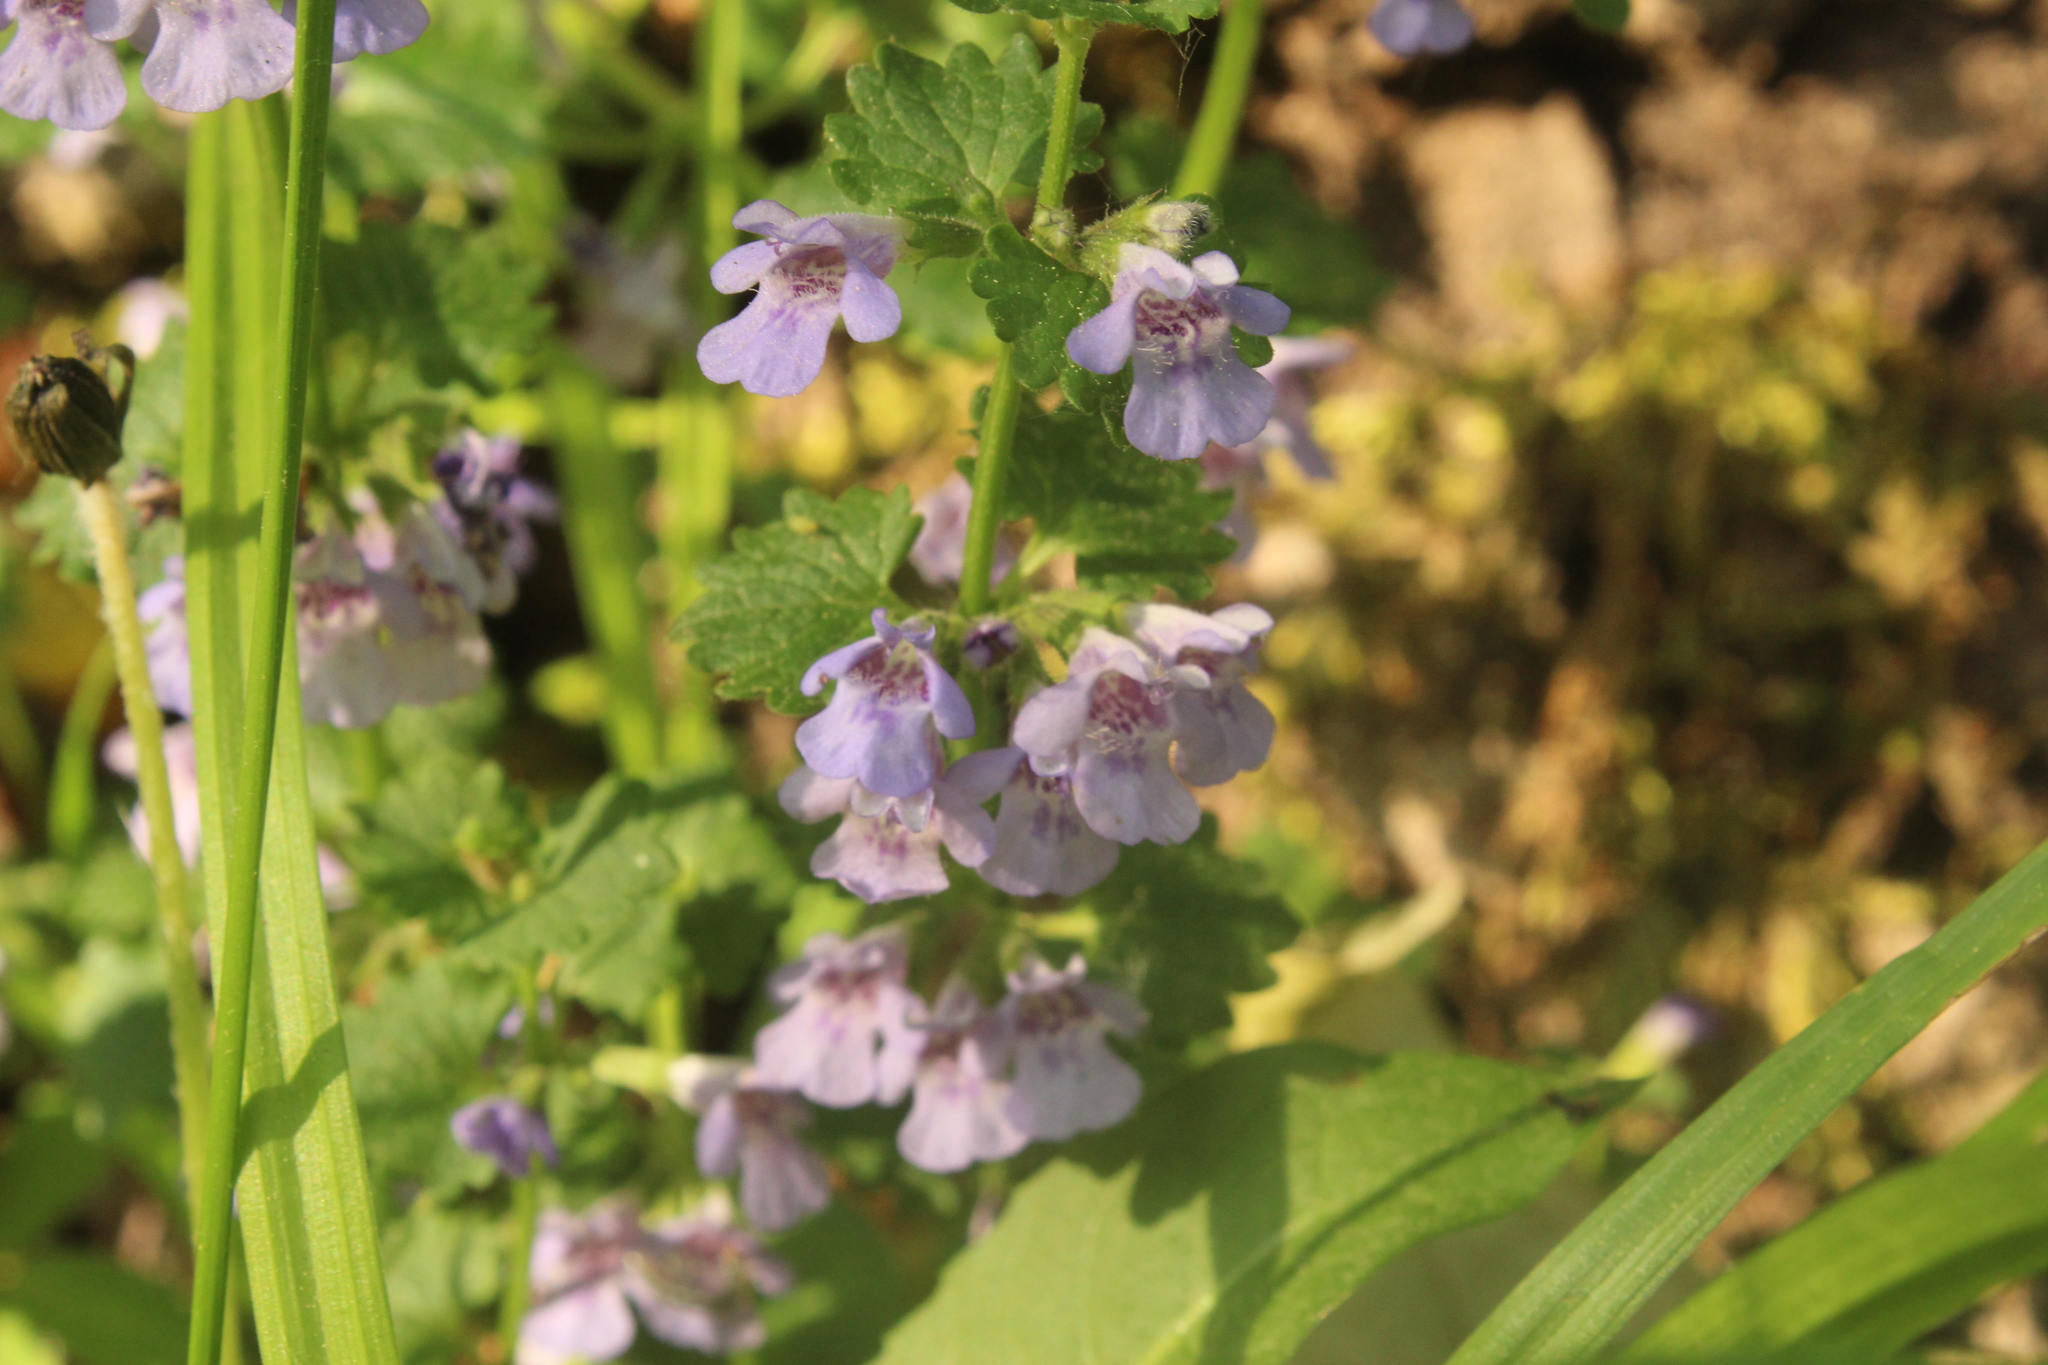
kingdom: Plantae
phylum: Tracheophyta
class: Magnoliopsida
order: Lamiales
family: Lamiaceae
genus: Glechoma
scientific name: Glechoma hederacea
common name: Ground ivy
